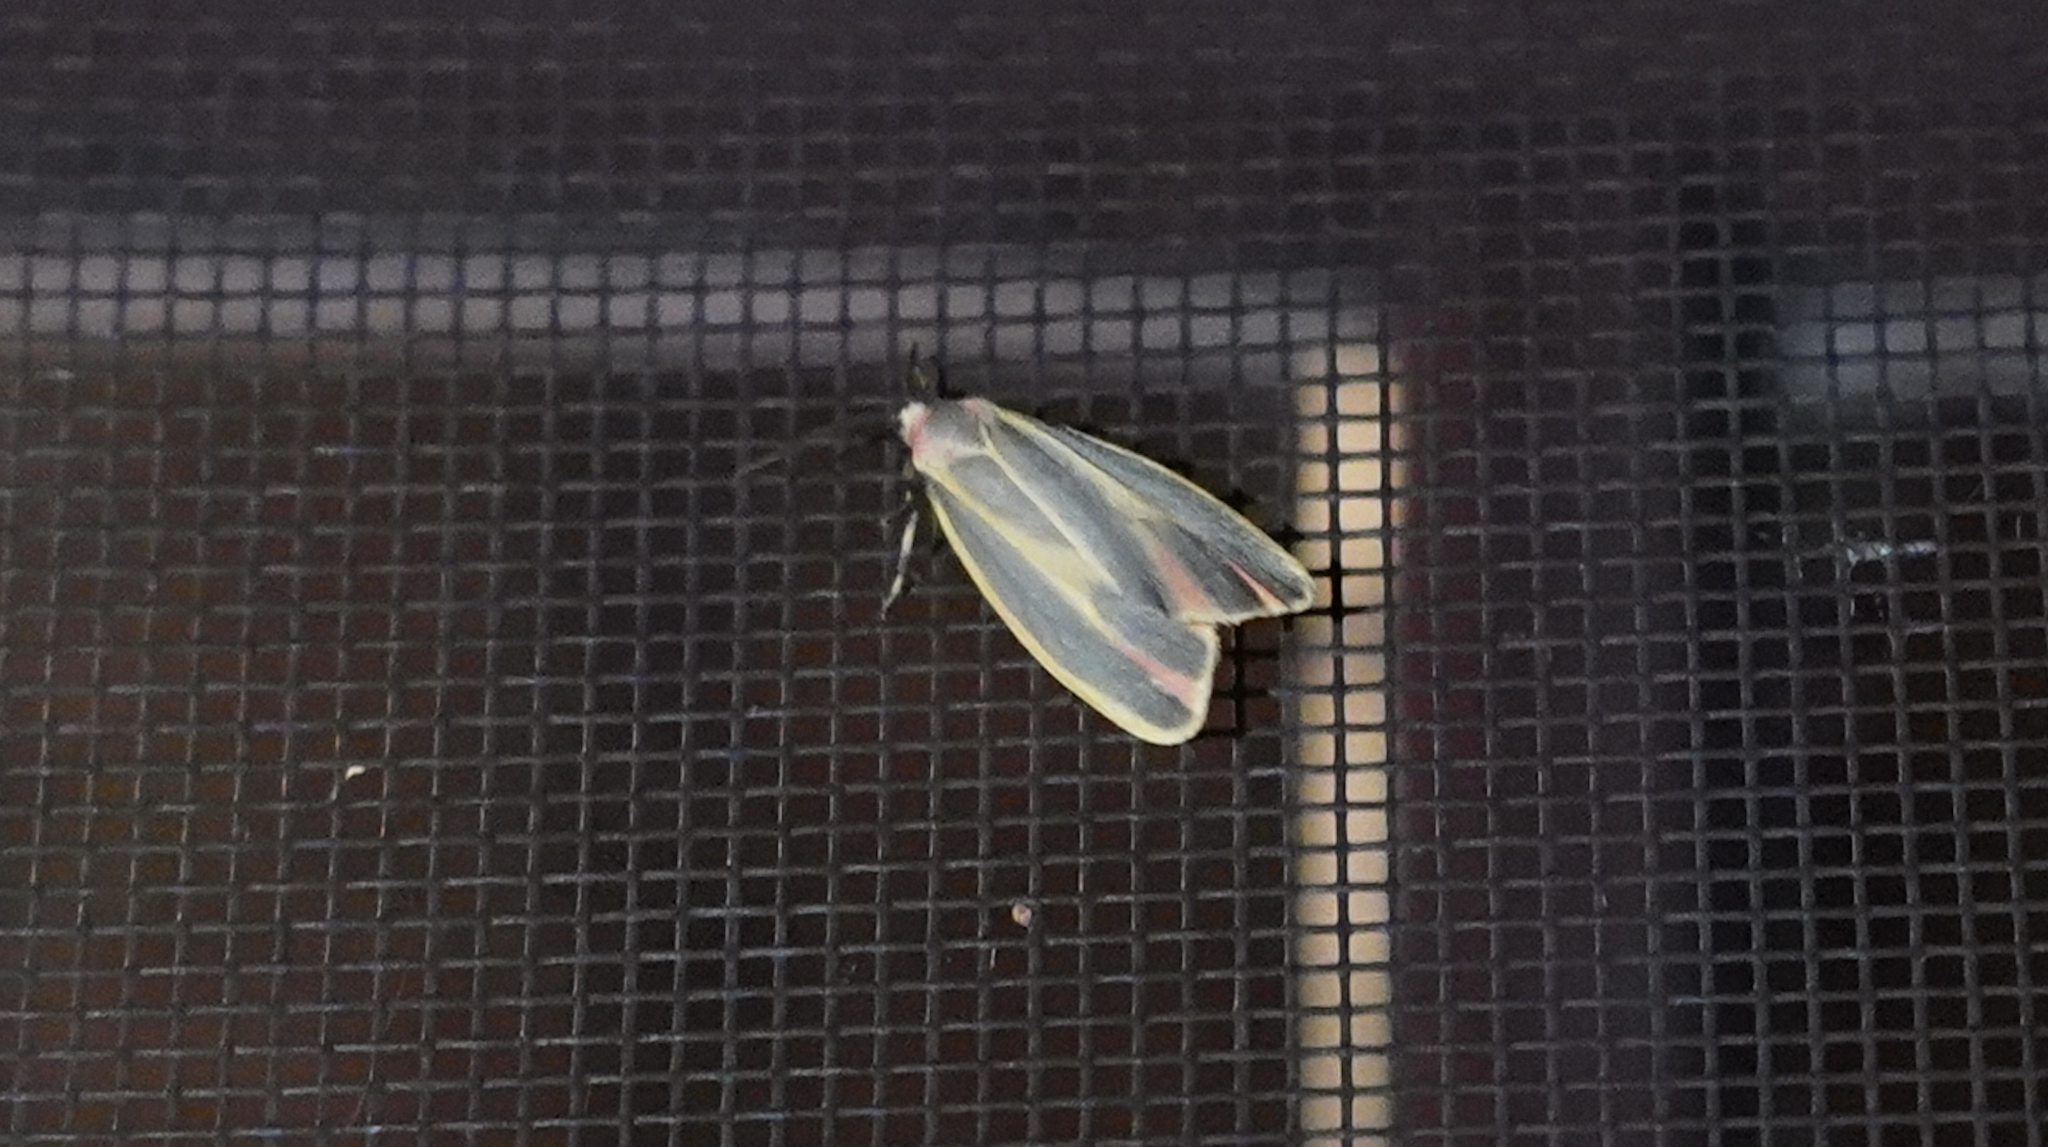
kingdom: Animalia
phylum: Arthropoda
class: Insecta
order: Lepidoptera
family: Erebidae
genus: Hypoprepia
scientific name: Hypoprepia fucosa
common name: Painted lichen moth
